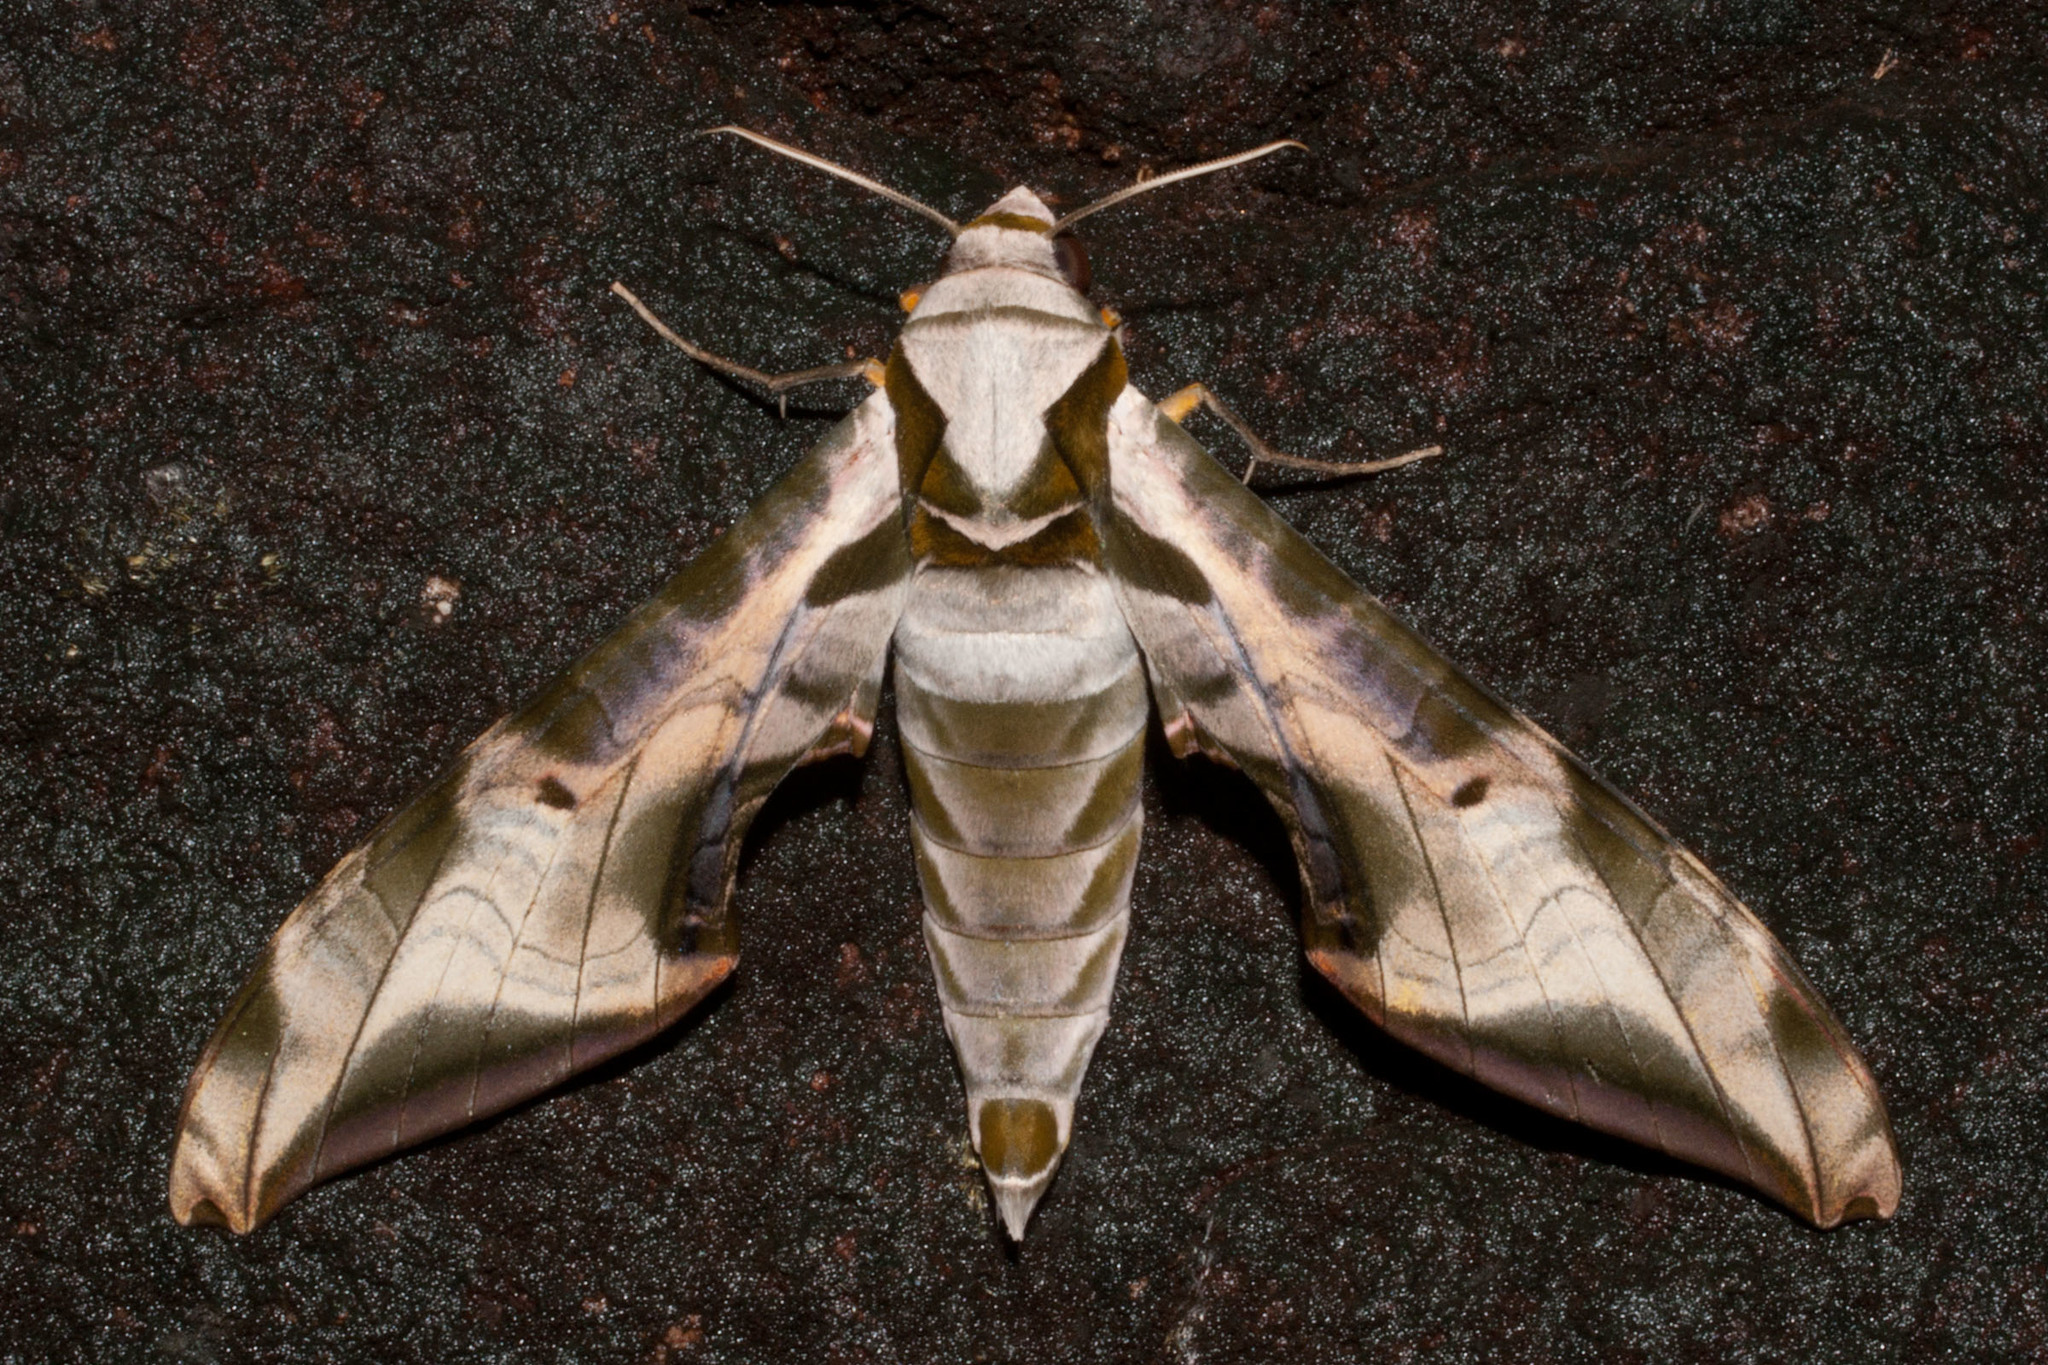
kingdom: Animalia
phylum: Arthropoda
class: Insecta
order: Lepidoptera
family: Sphingidae
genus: Protambulyx
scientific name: Protambulyx goeldii
